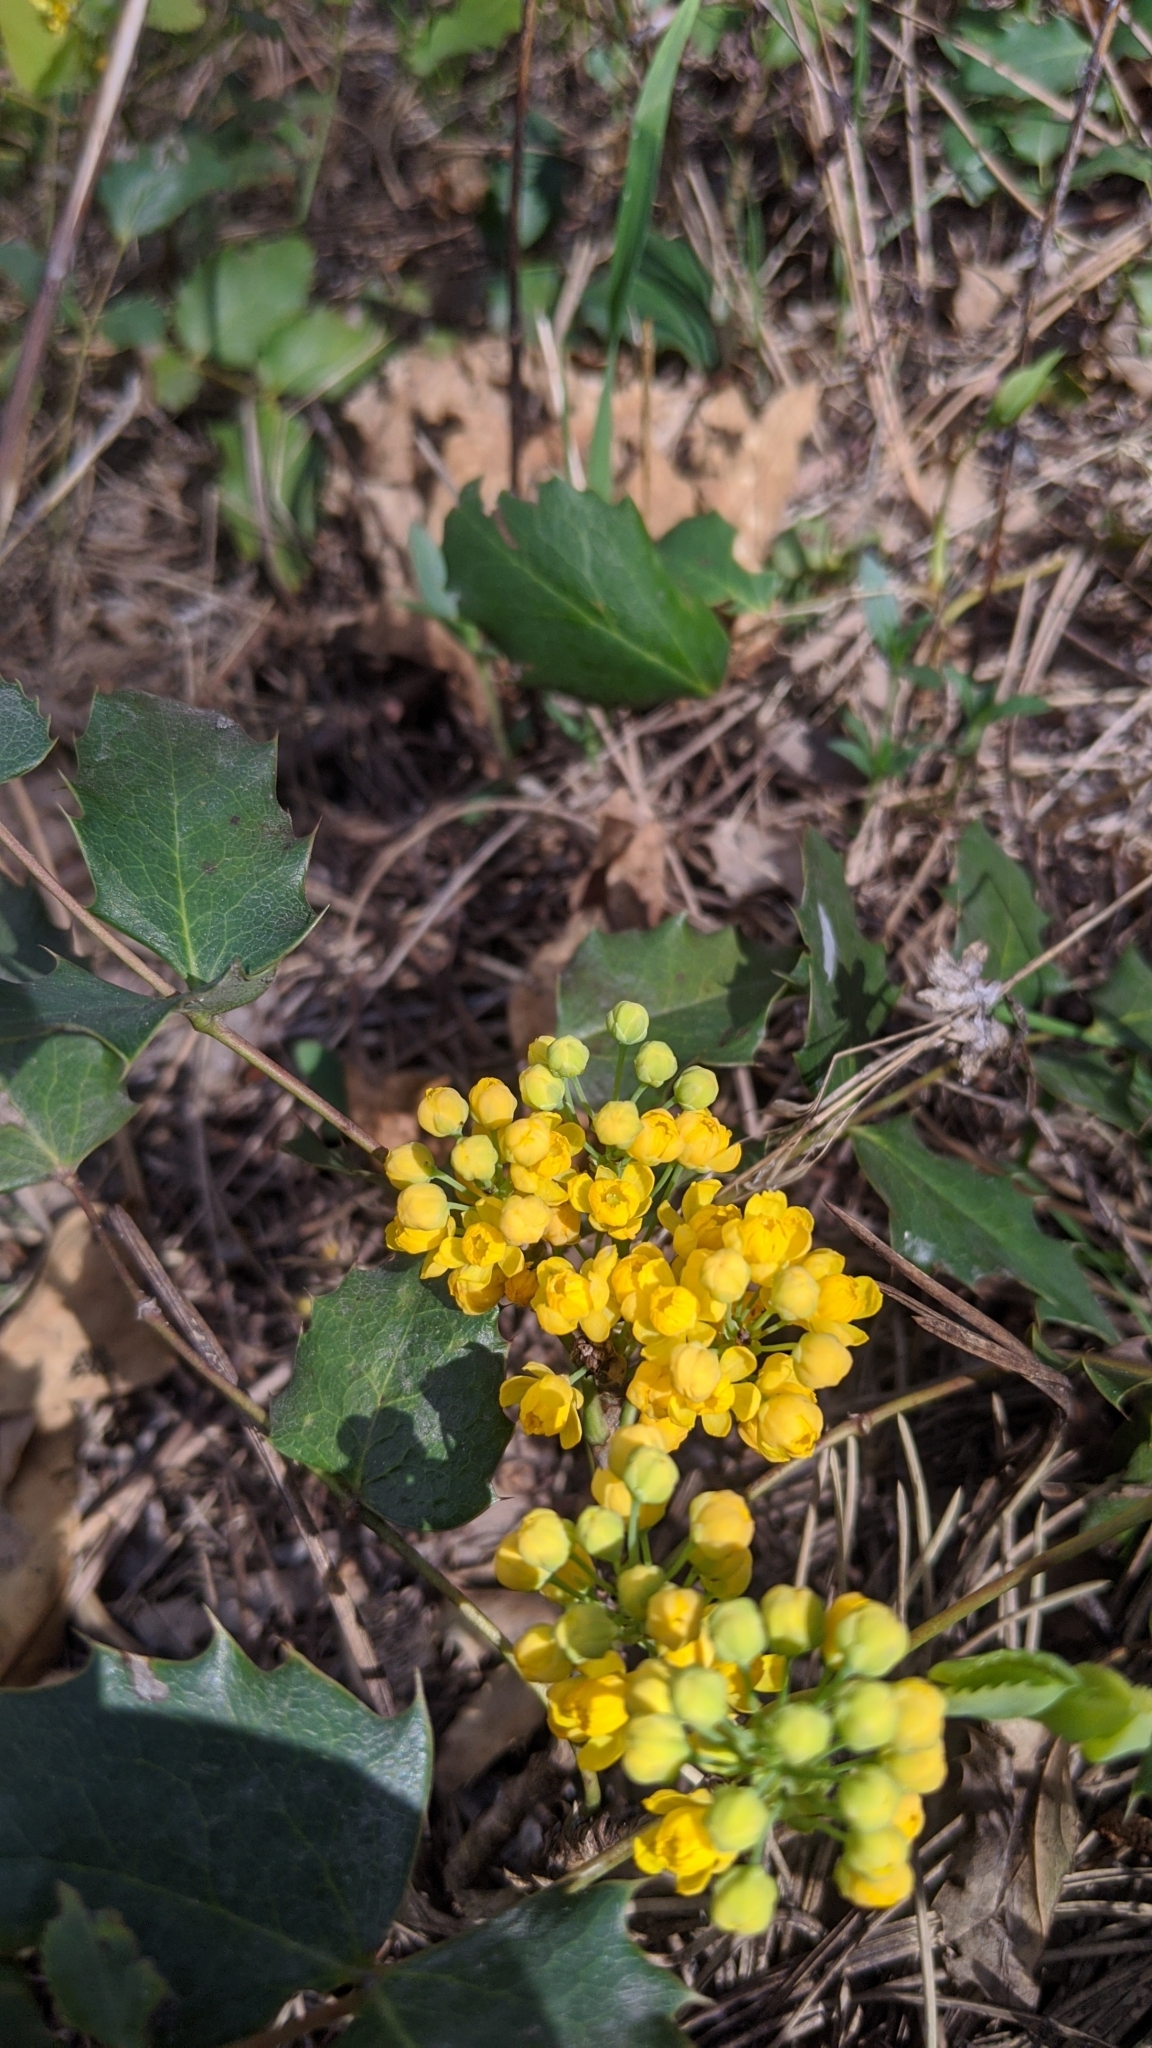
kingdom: Plantae
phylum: Tracheophyta
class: Magnoliopsida
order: Ranunculales
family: Berberidaceae
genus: Mahonia
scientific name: Mahonia repens
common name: Creeping oregon-grape
